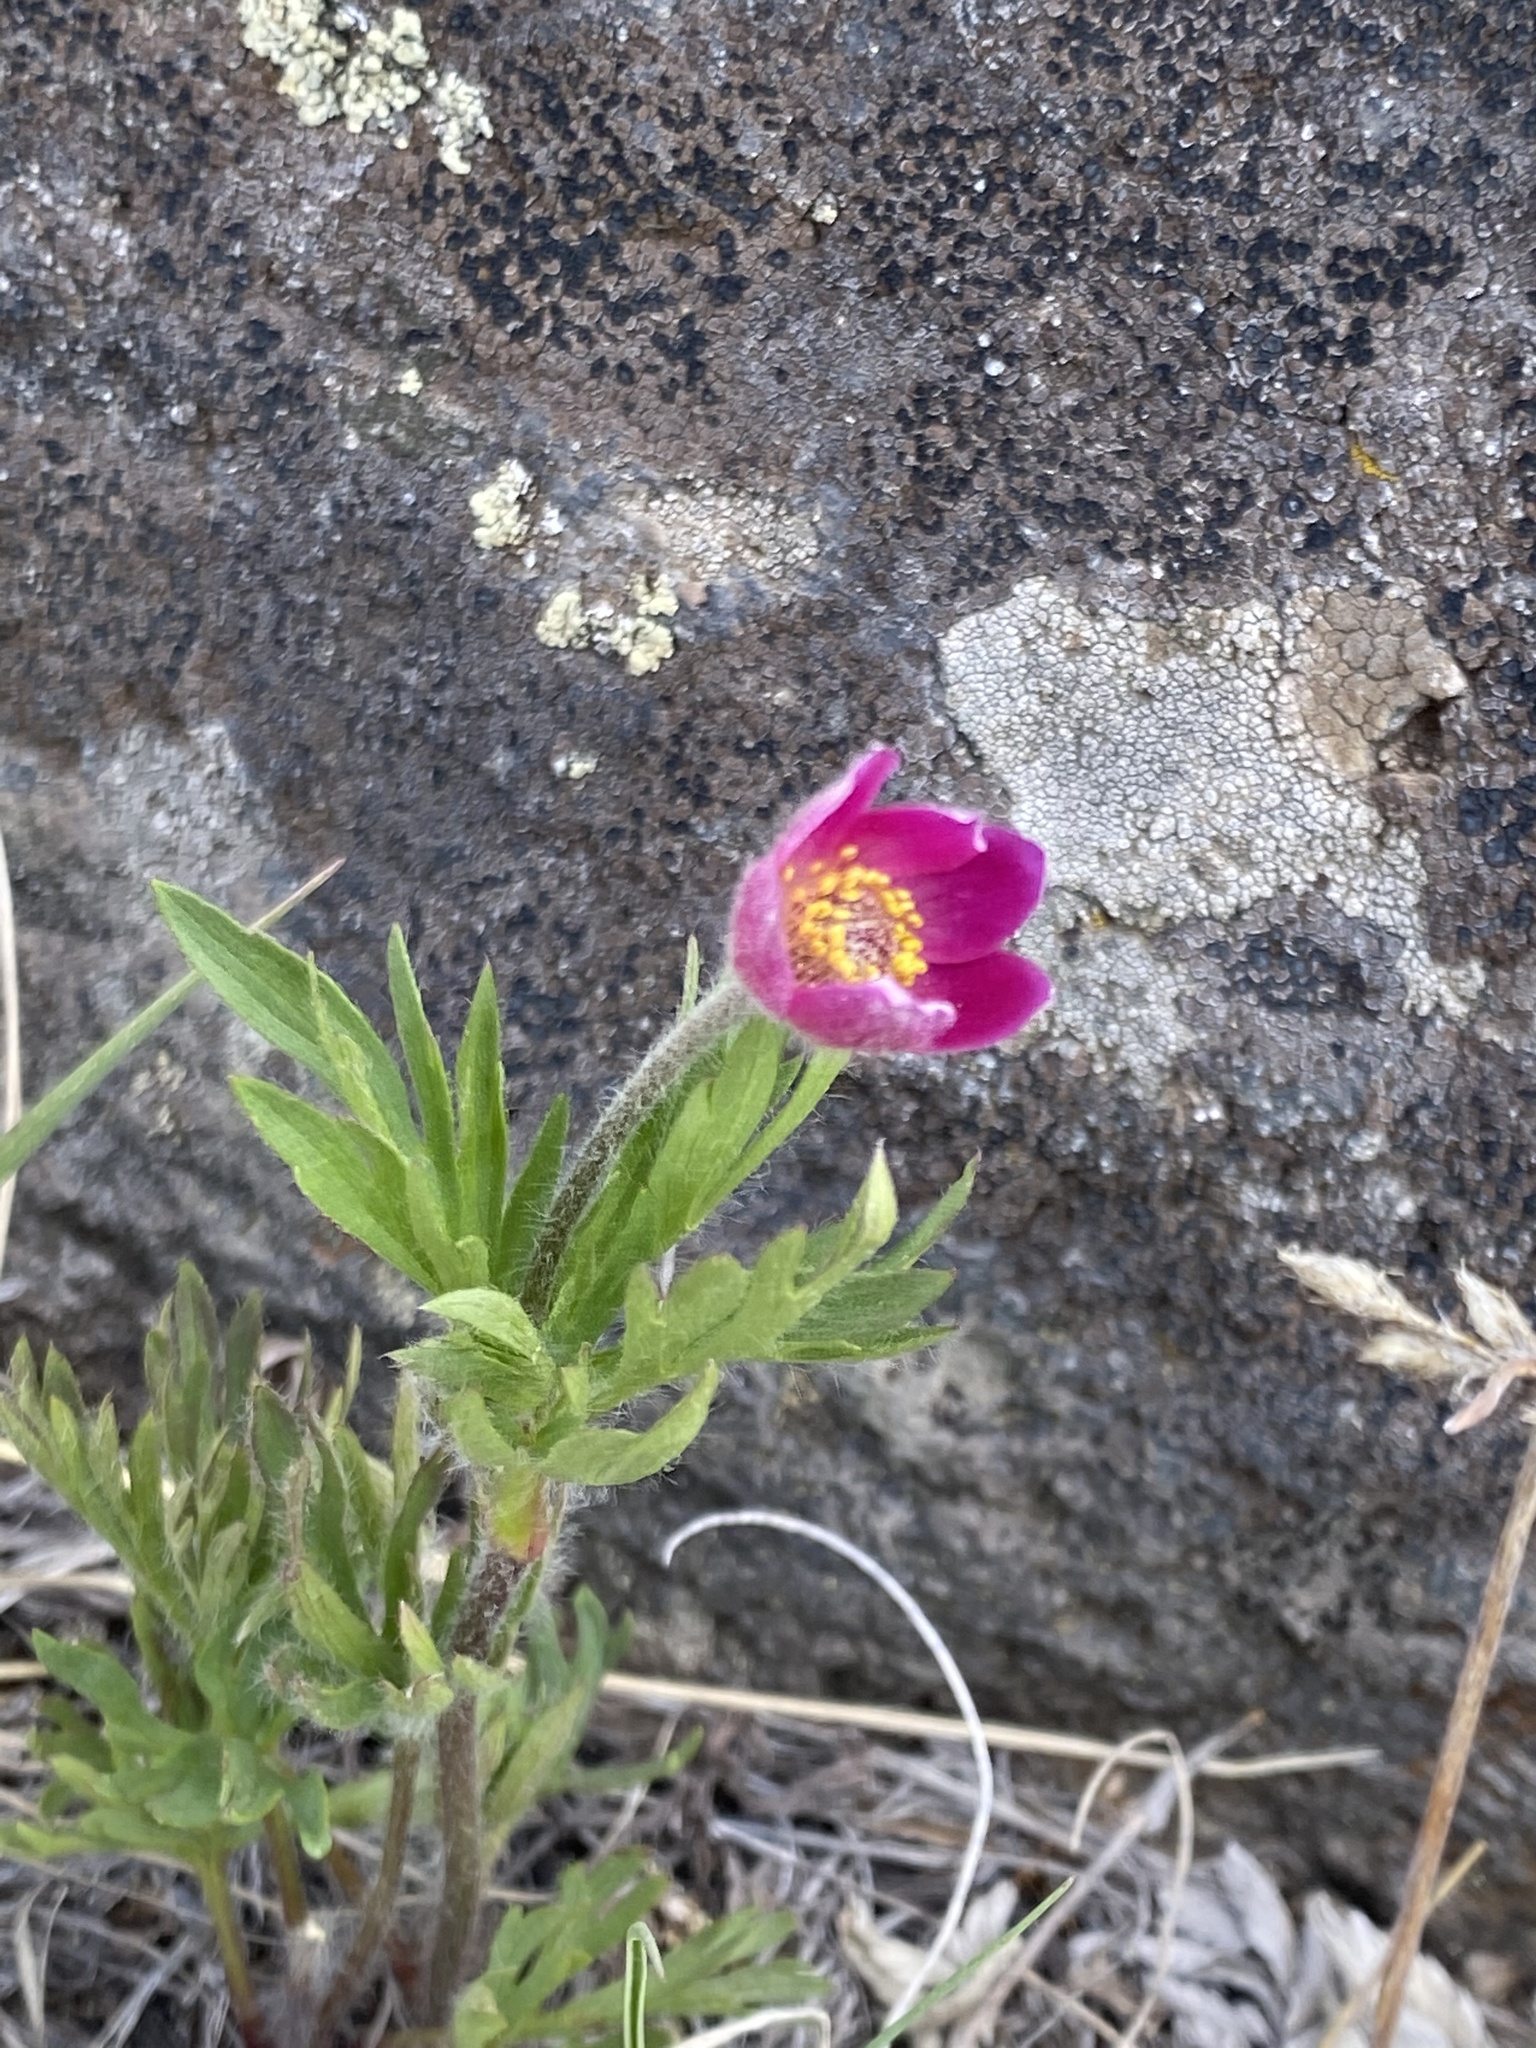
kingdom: Plantae
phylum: Tracheophyta
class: Magnoliopsida
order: Ranunculales
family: Ranunculaceae
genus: Anemone
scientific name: Anemone multifida
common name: Bird's-foot anemone
